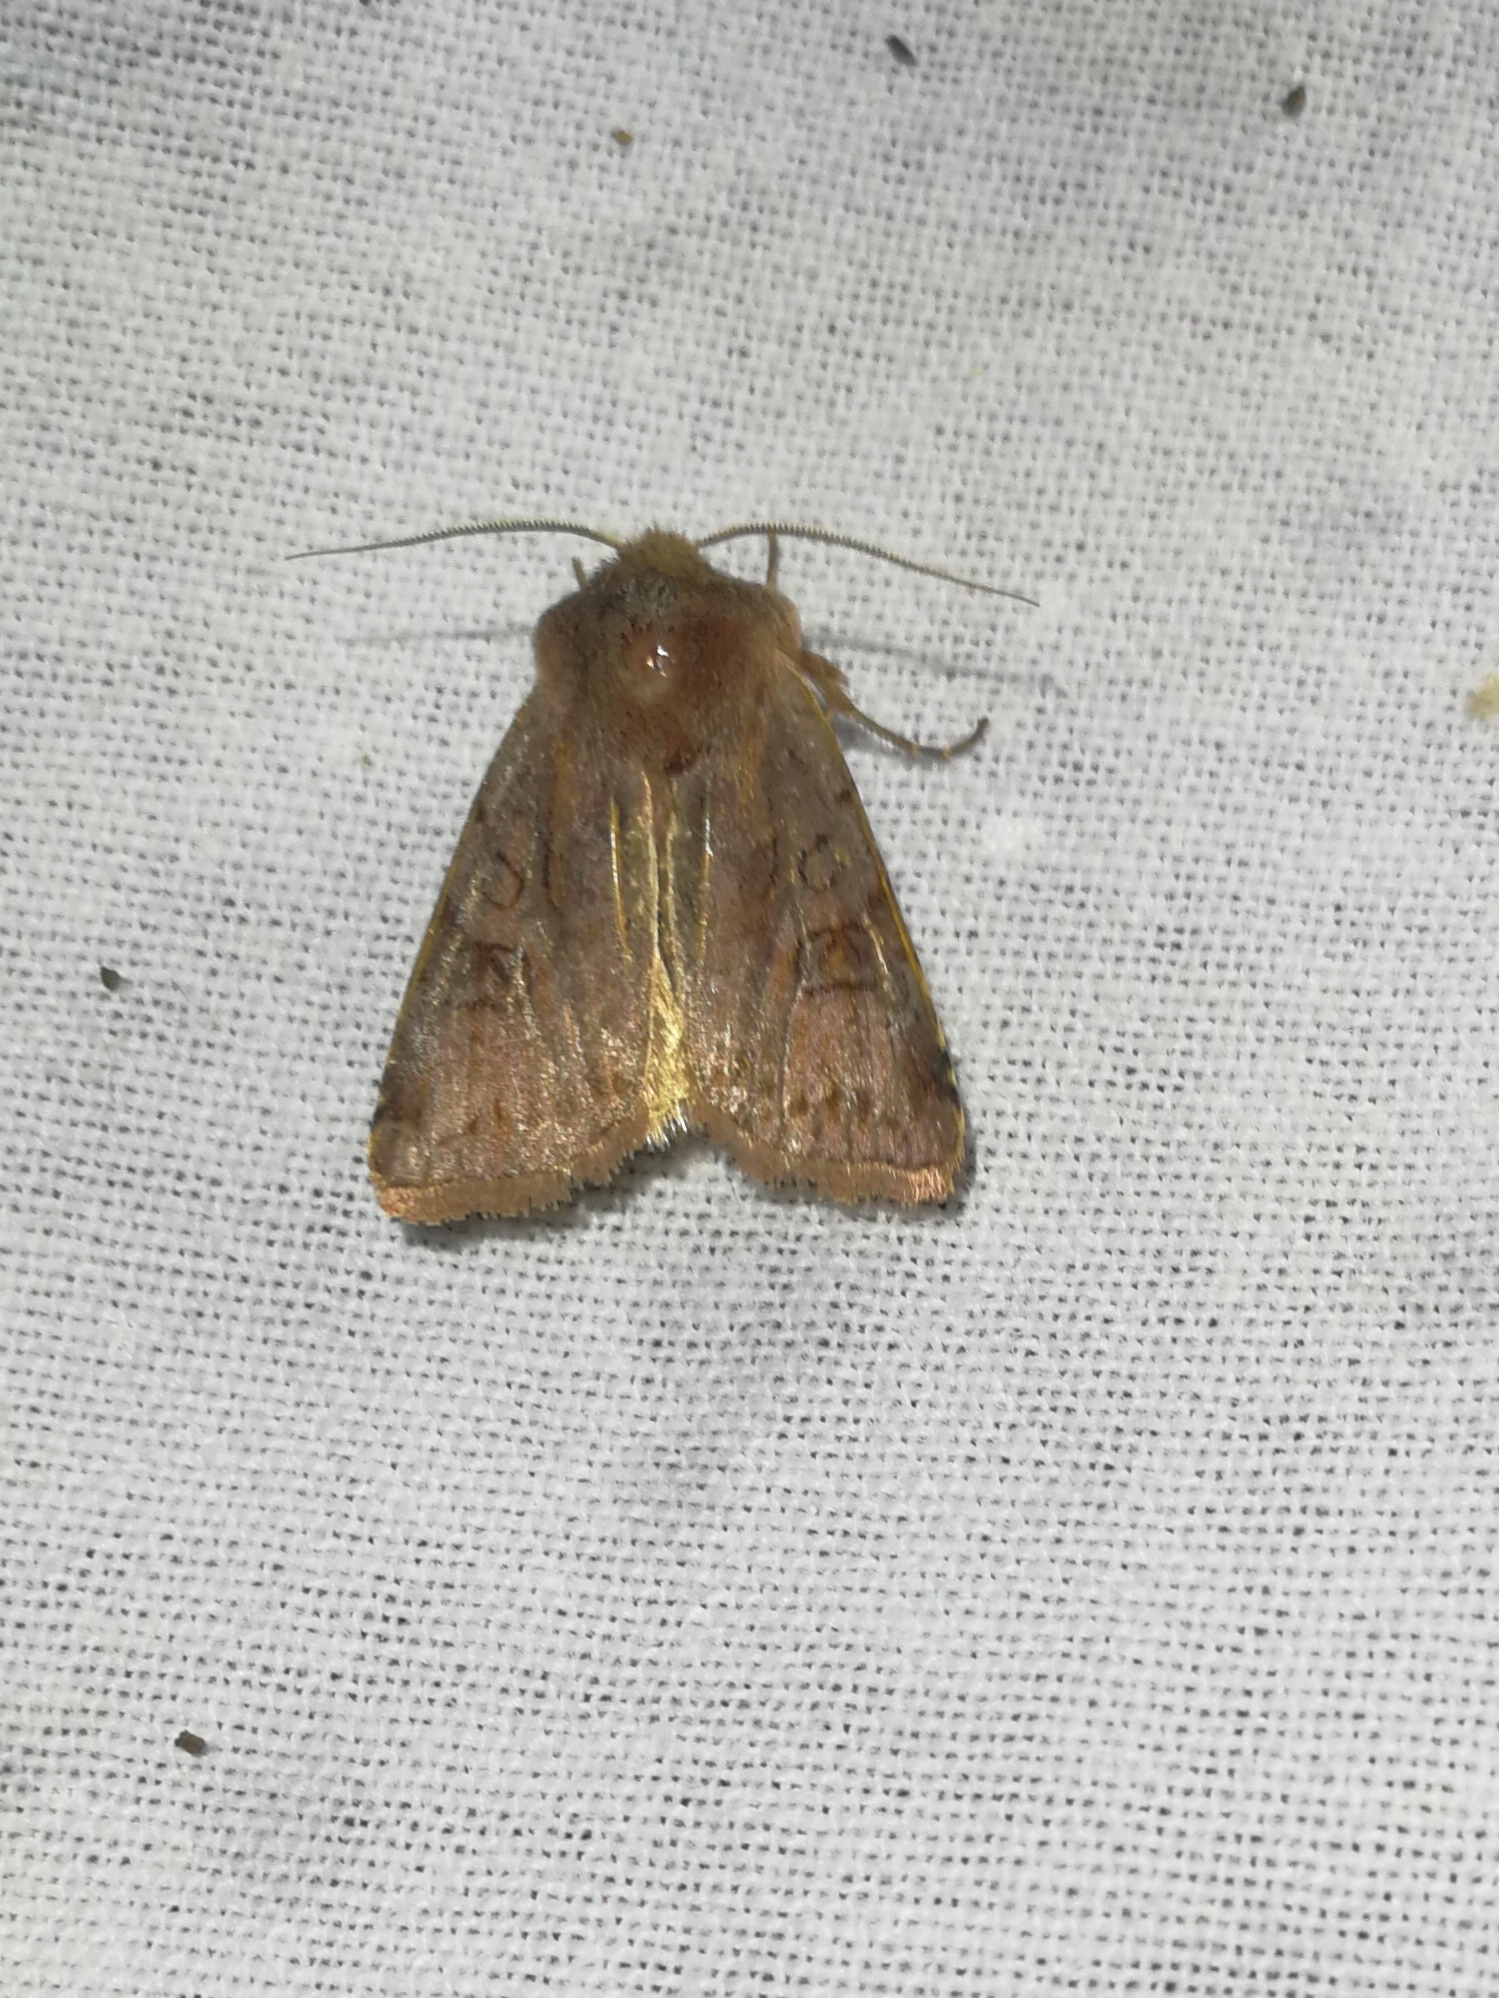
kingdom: Animalia
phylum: Arthropoda
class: Insecta
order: Lepidoptera
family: Noctuidae
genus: Cerastis
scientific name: Cerastis rubricosa
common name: Red chestnut
